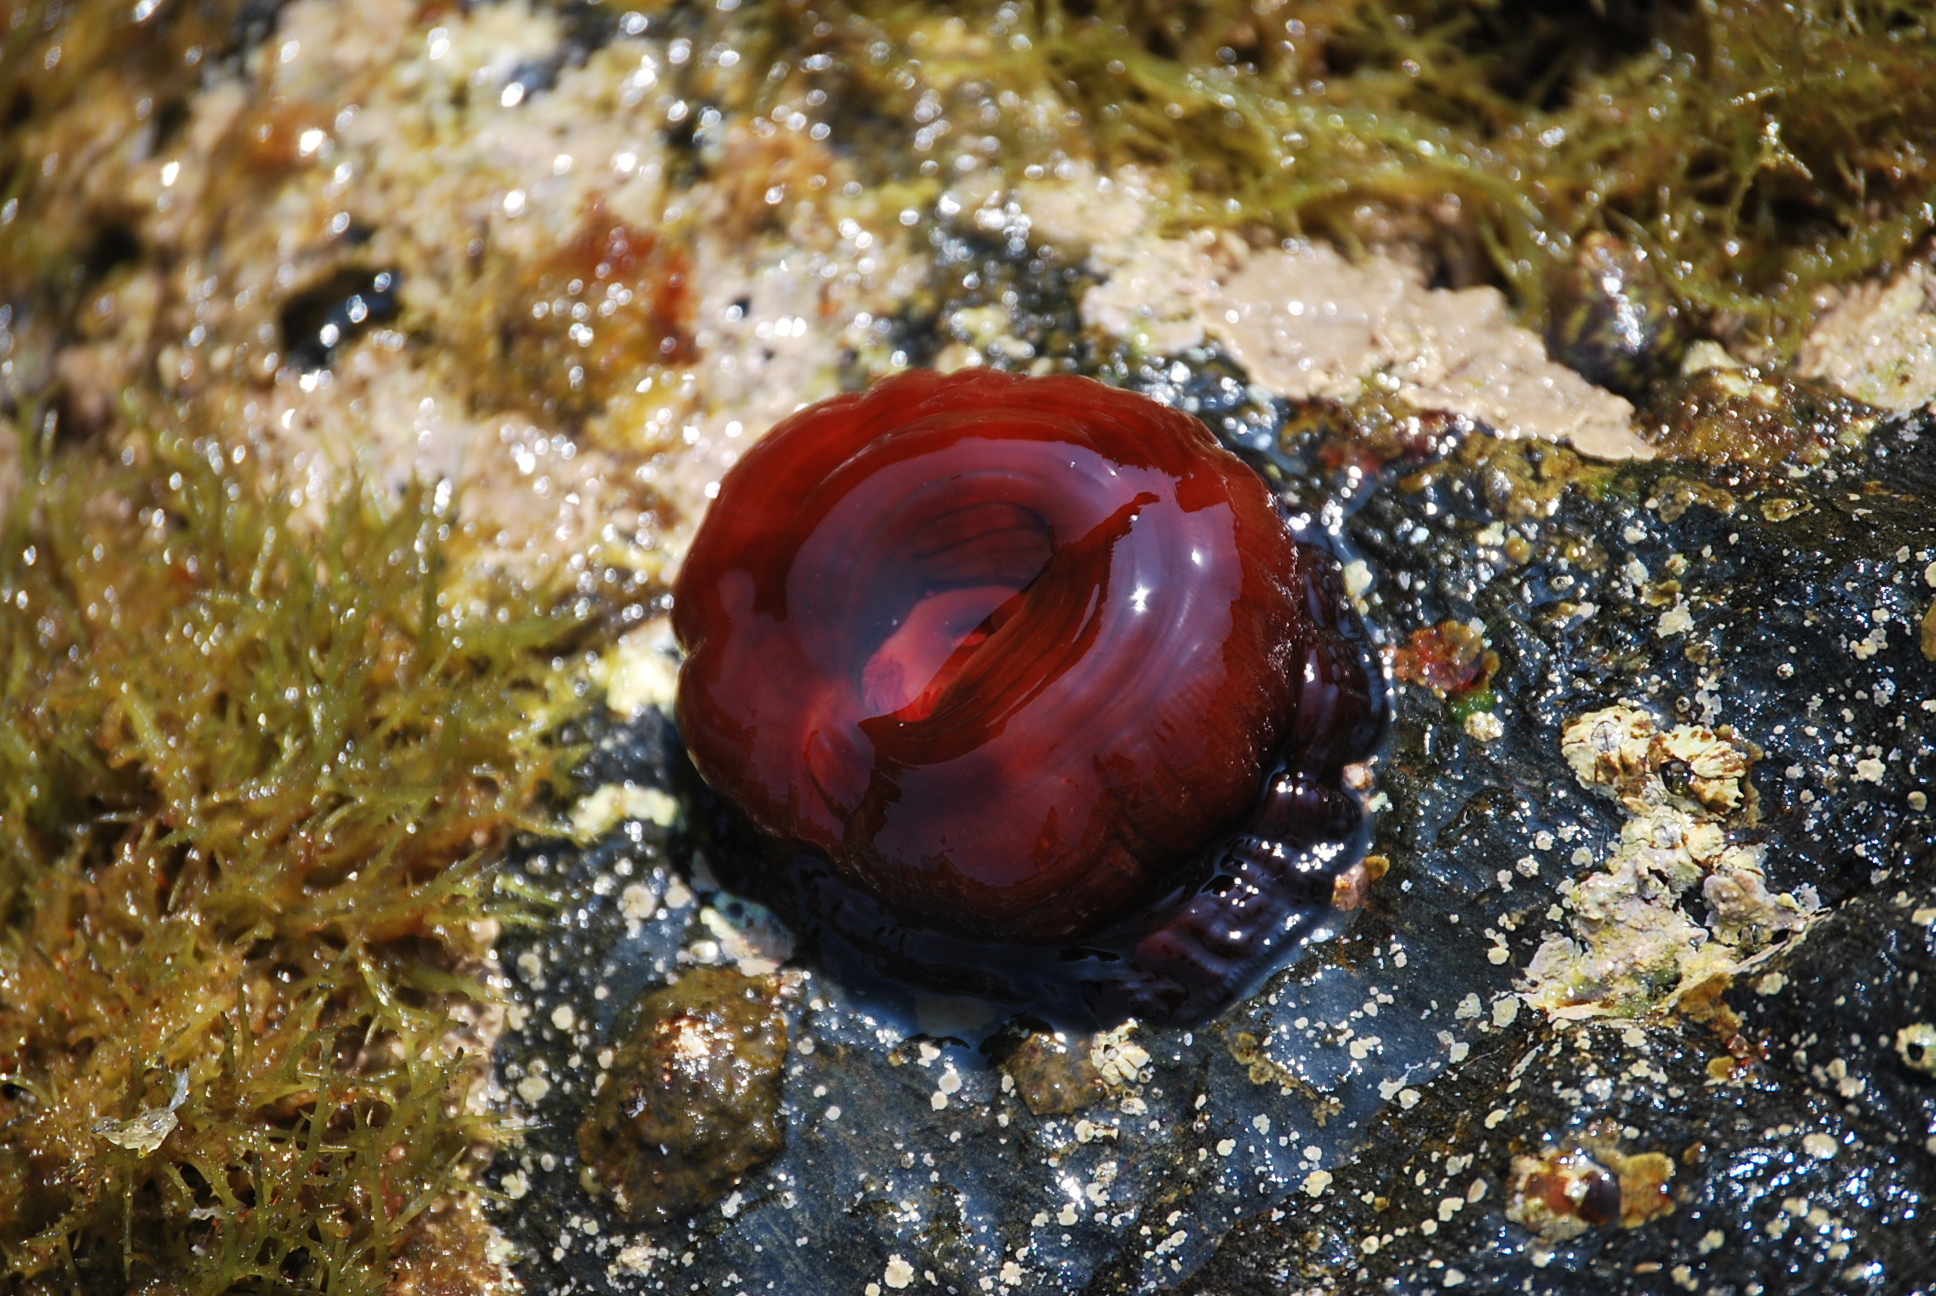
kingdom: Animalia
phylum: Cnidaria
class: Anthozoa
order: Actiniaria
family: Actiniidae
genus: Actinia
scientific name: Actinia mediterranea
